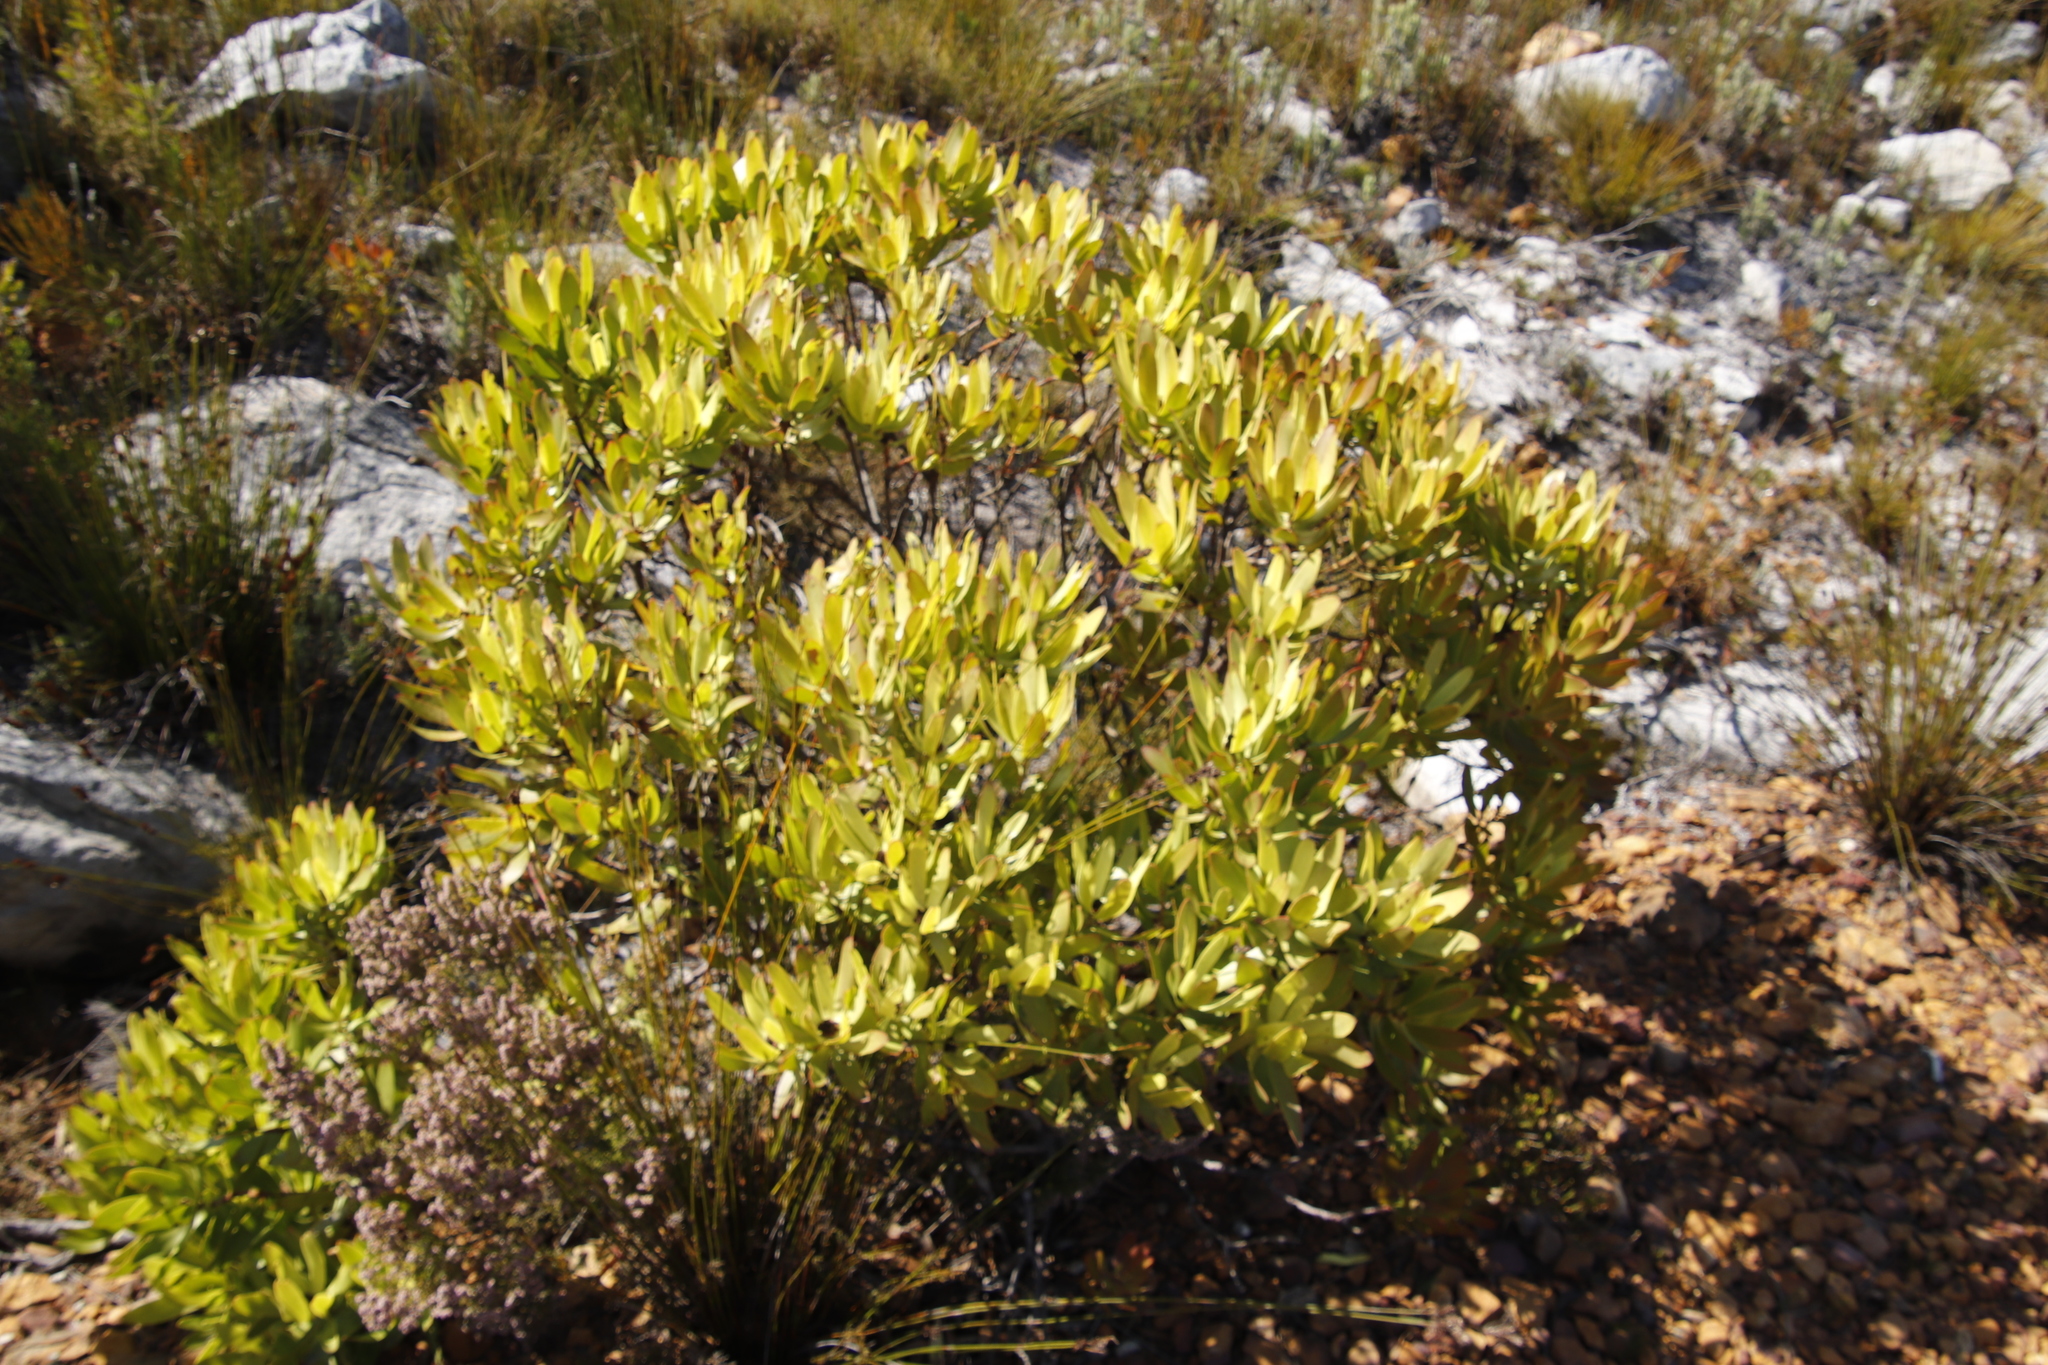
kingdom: Plantae
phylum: Tracheophyta
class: Magnoliopsida
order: Proteales
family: Proteaceae
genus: Leucadendron
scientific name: Leucadendron microcephalum
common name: Oilbract conebush
